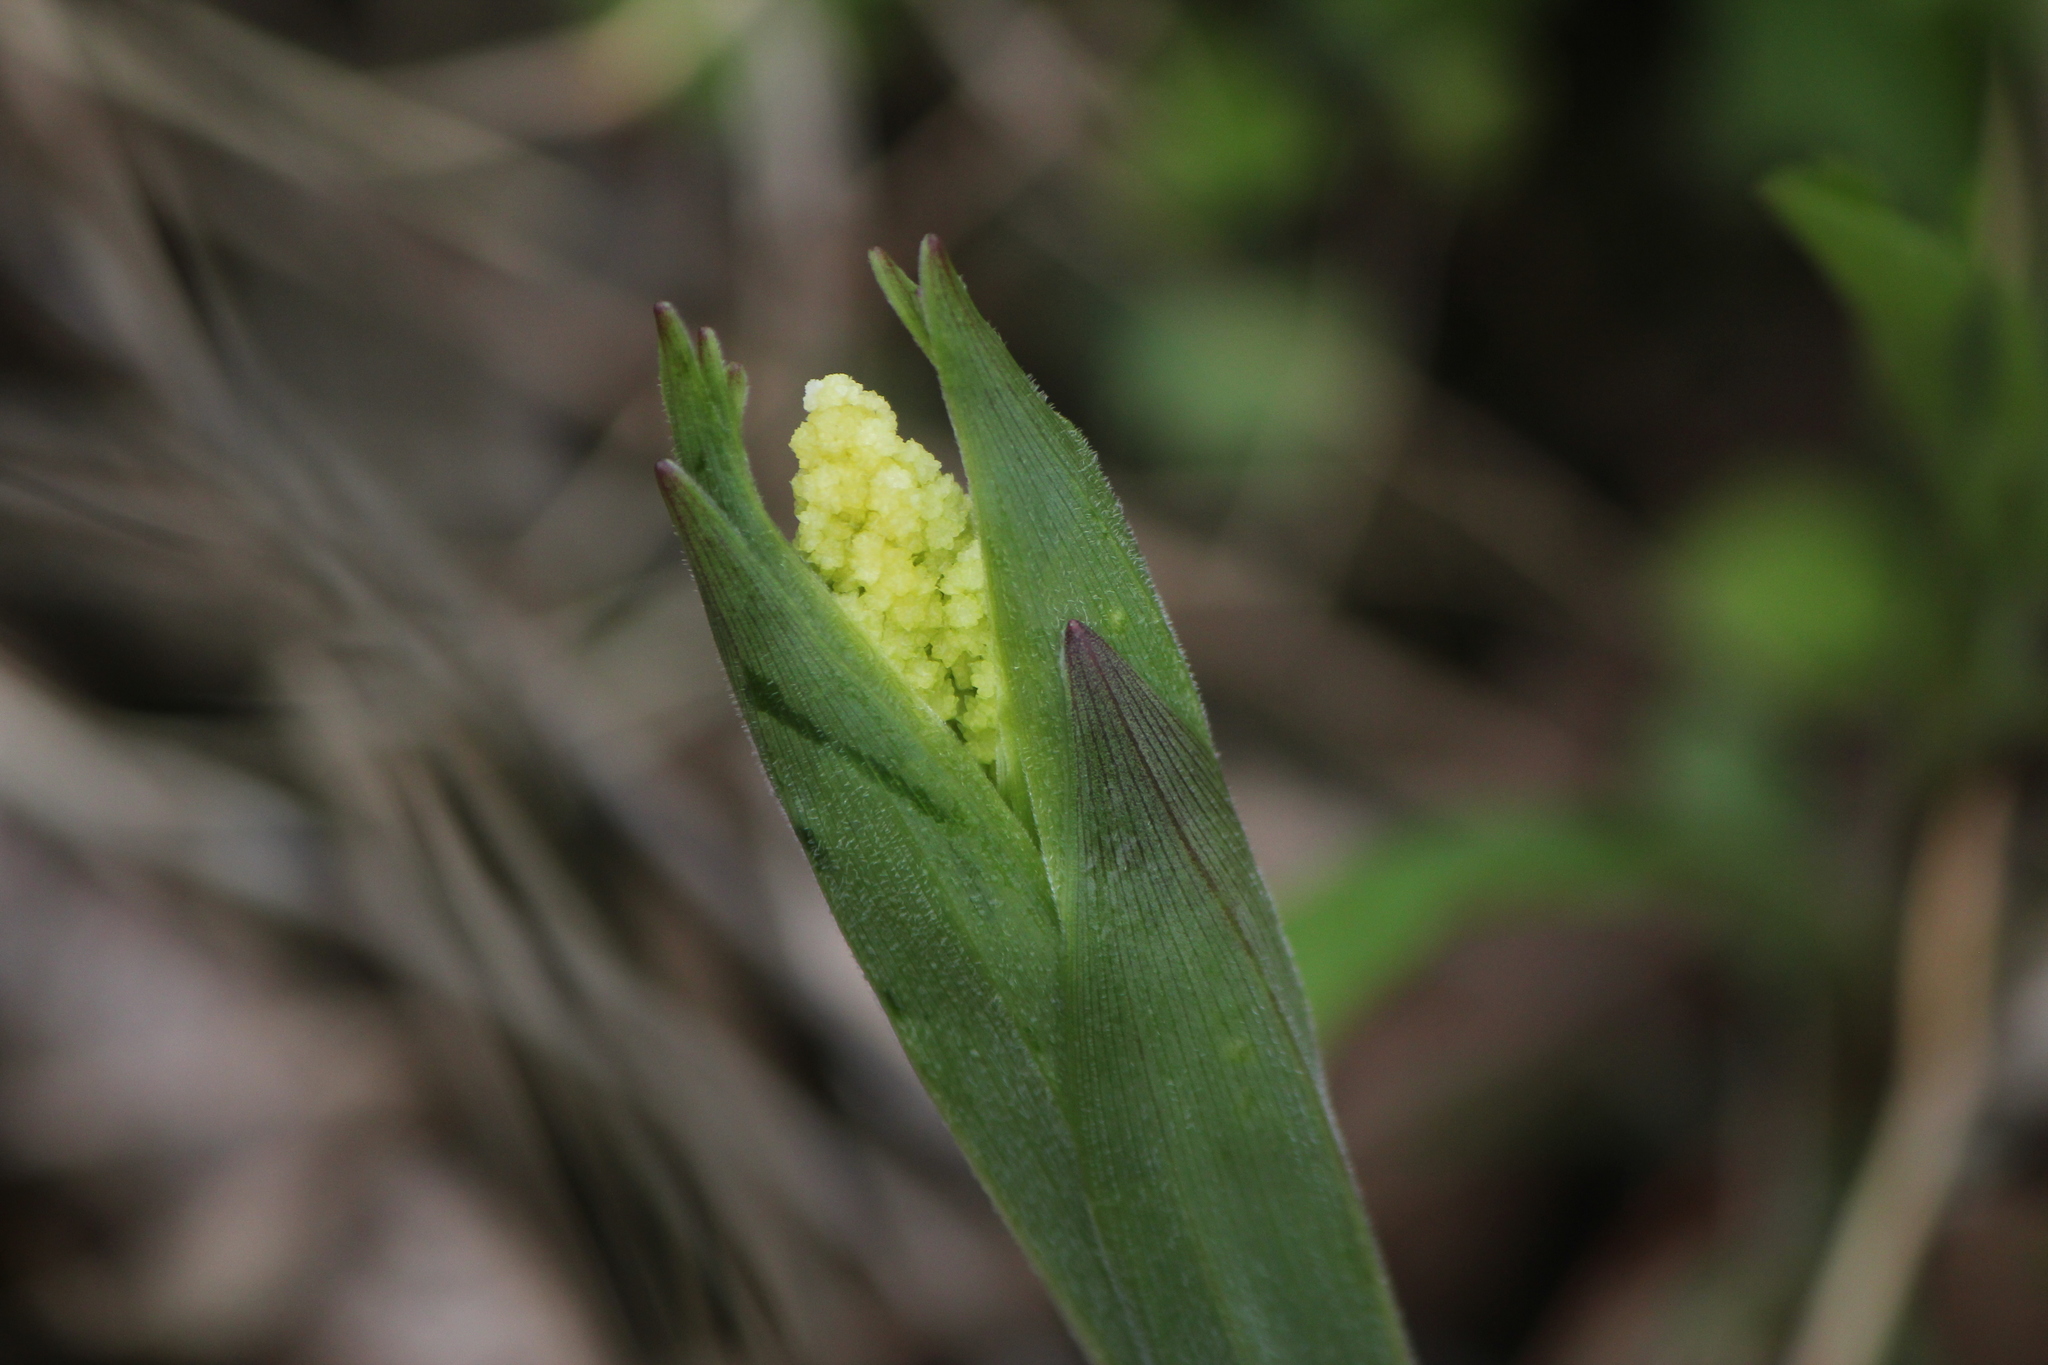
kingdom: Plantae
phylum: Tracheophyta
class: Liliopsida
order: Asparagales
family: Asparagaceae
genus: Maianthemum
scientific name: Maianthemum racemosum
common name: False spikenard
